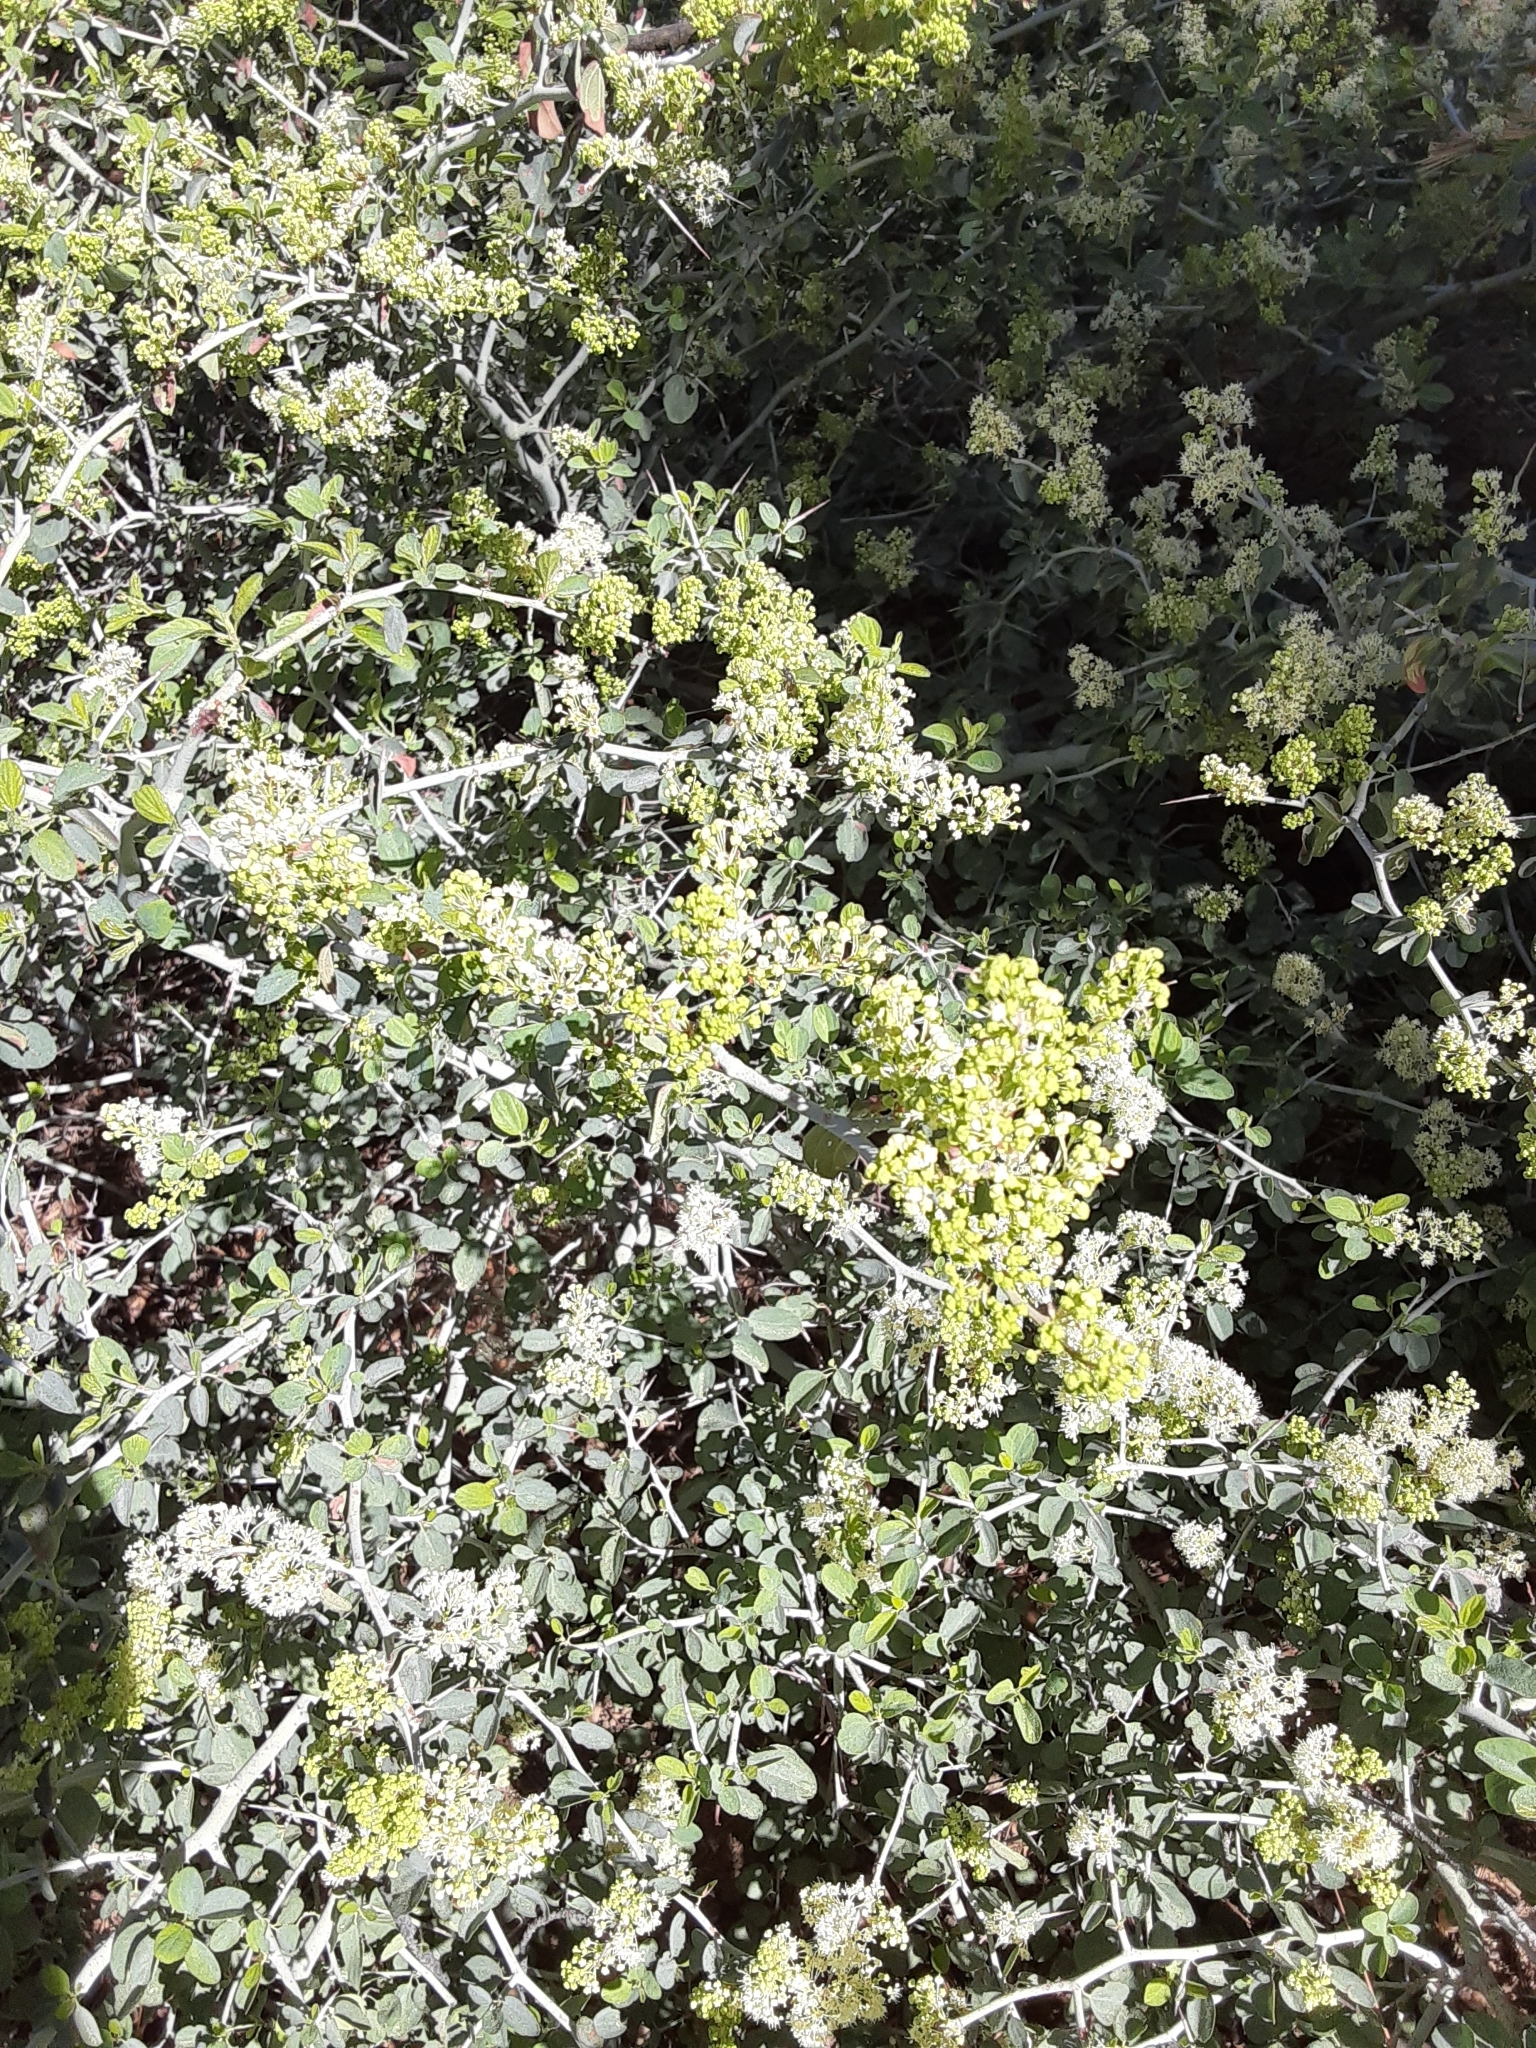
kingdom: Plantae
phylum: Tracheophyta
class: Magnoliopsida
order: Rosales
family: Rhamnaceae
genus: Ceanothus
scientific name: Ceanothus cordulatus
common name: Mountain whitethorn
